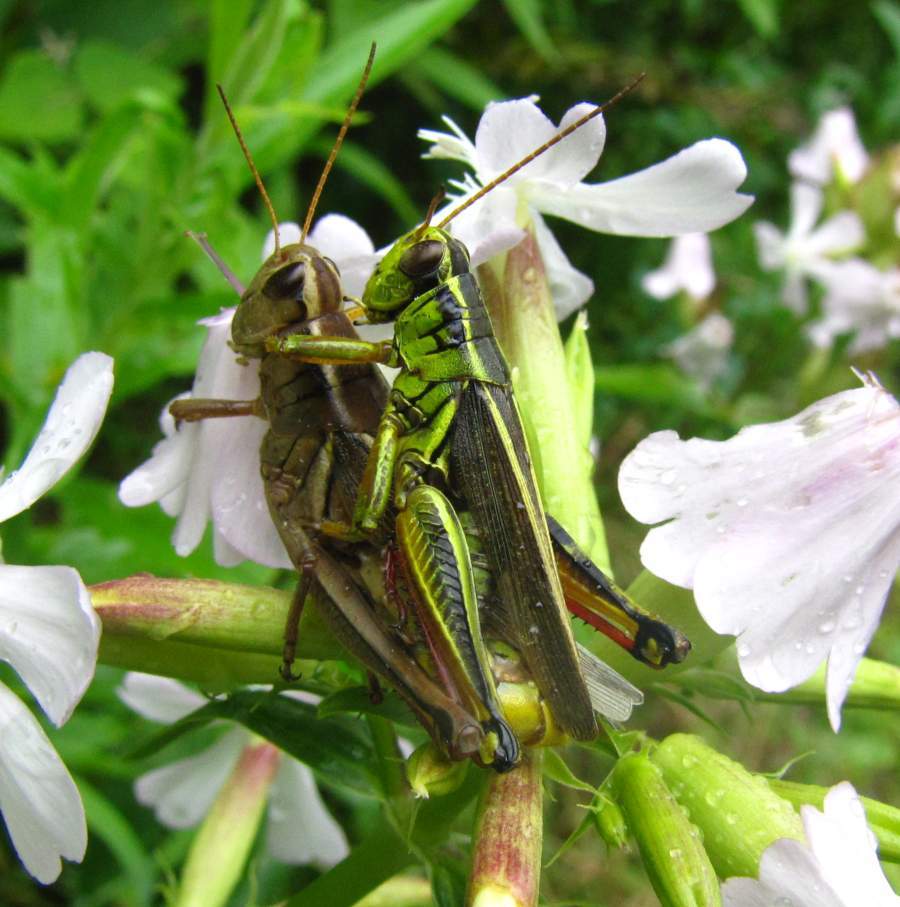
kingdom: Animalia
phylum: Arthropoda
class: Insecta
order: Orthoptera
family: Acrididae
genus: Melanoplus
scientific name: Melanoplus bivittatus
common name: Two-striped grasshopper
